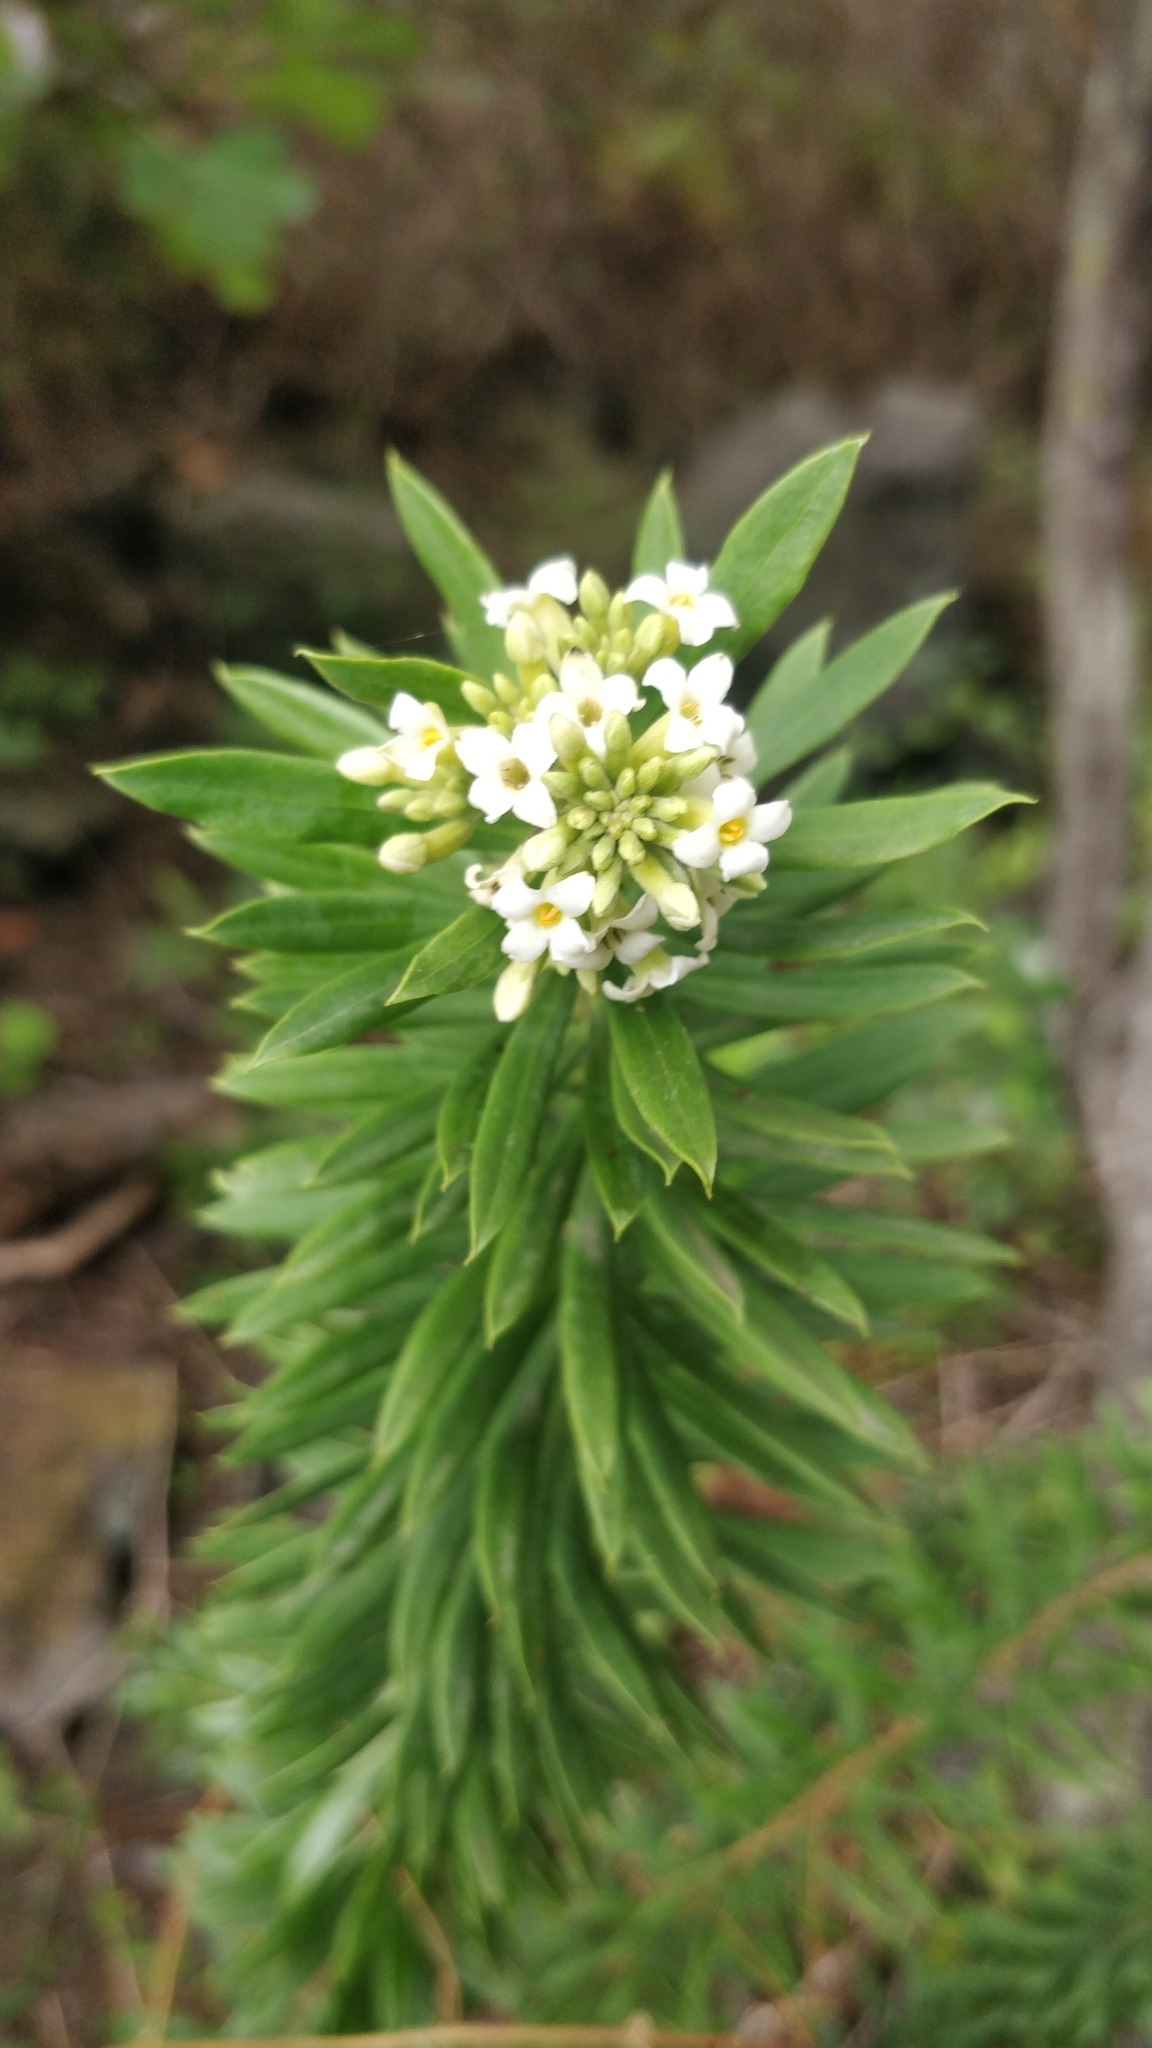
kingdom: Plantae
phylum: Tracheophyta
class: Magnoliopsida
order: Malvales
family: Thymelaeaceae
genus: Daphne
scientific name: Daphne gnidium
